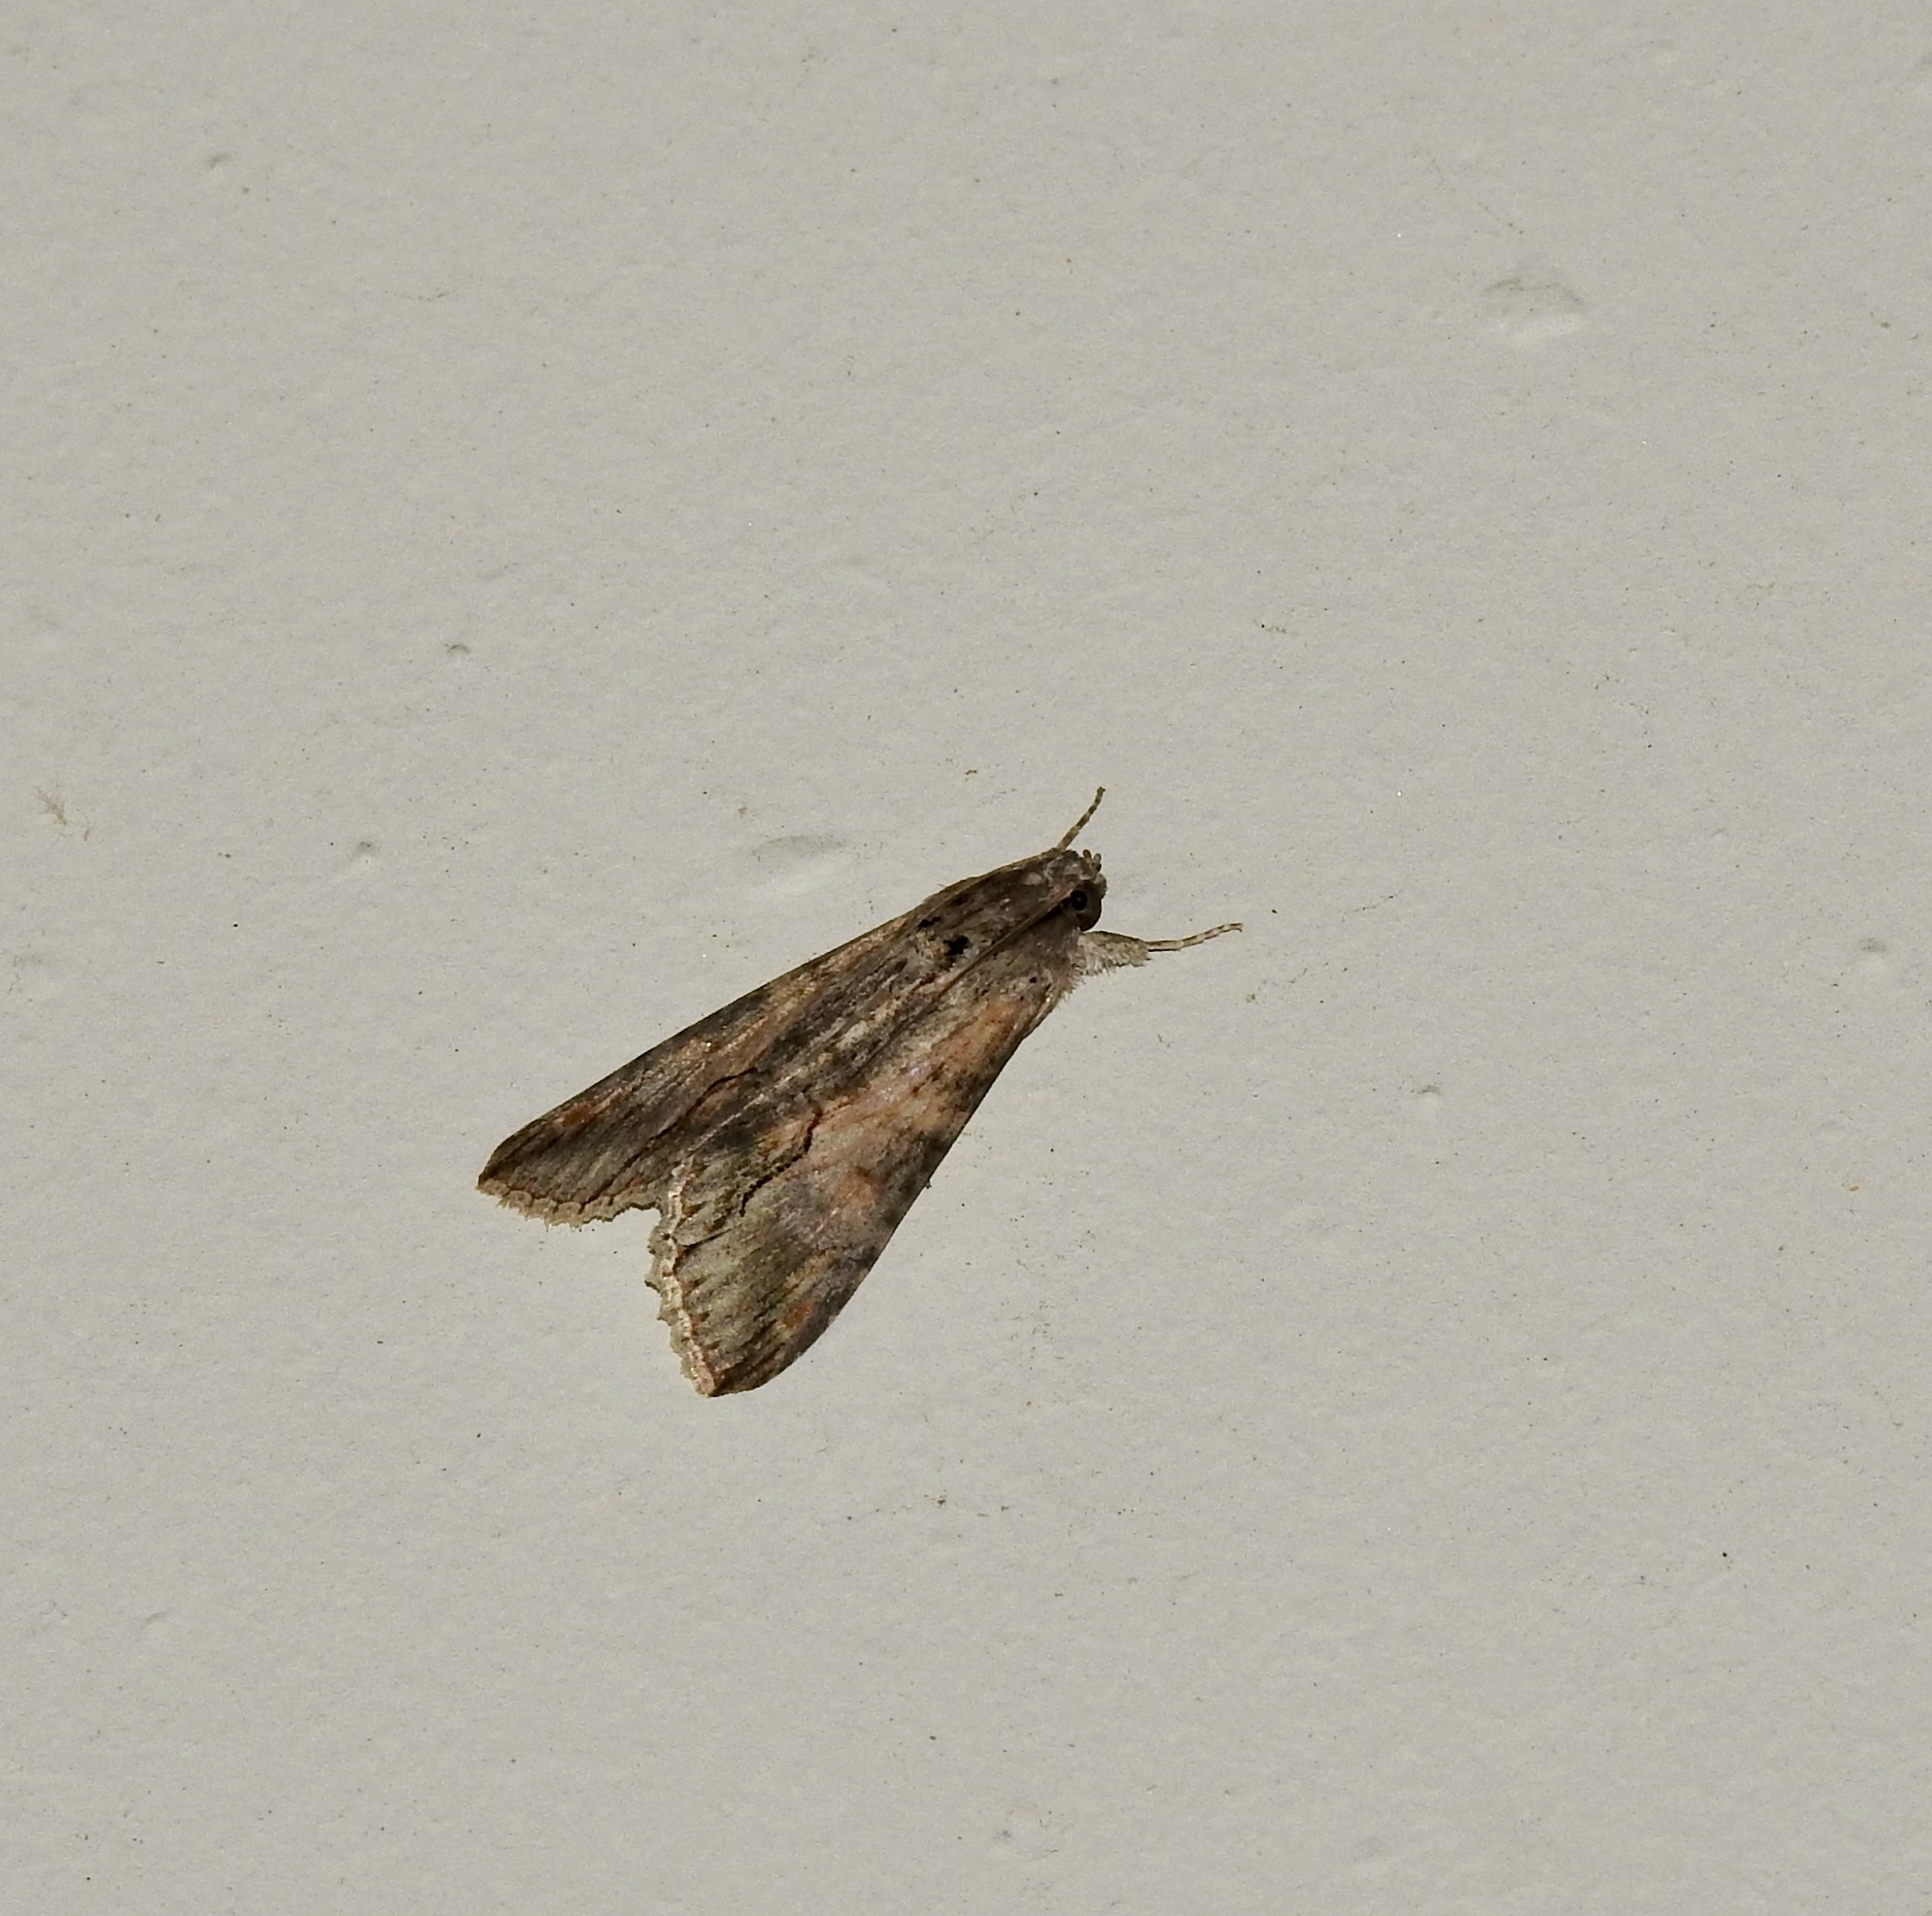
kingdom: Animalia
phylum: Arthropoda
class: Insecta
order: Lepidoptera
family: Erebidae
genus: Melipotis
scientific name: Melipotis acontioides
